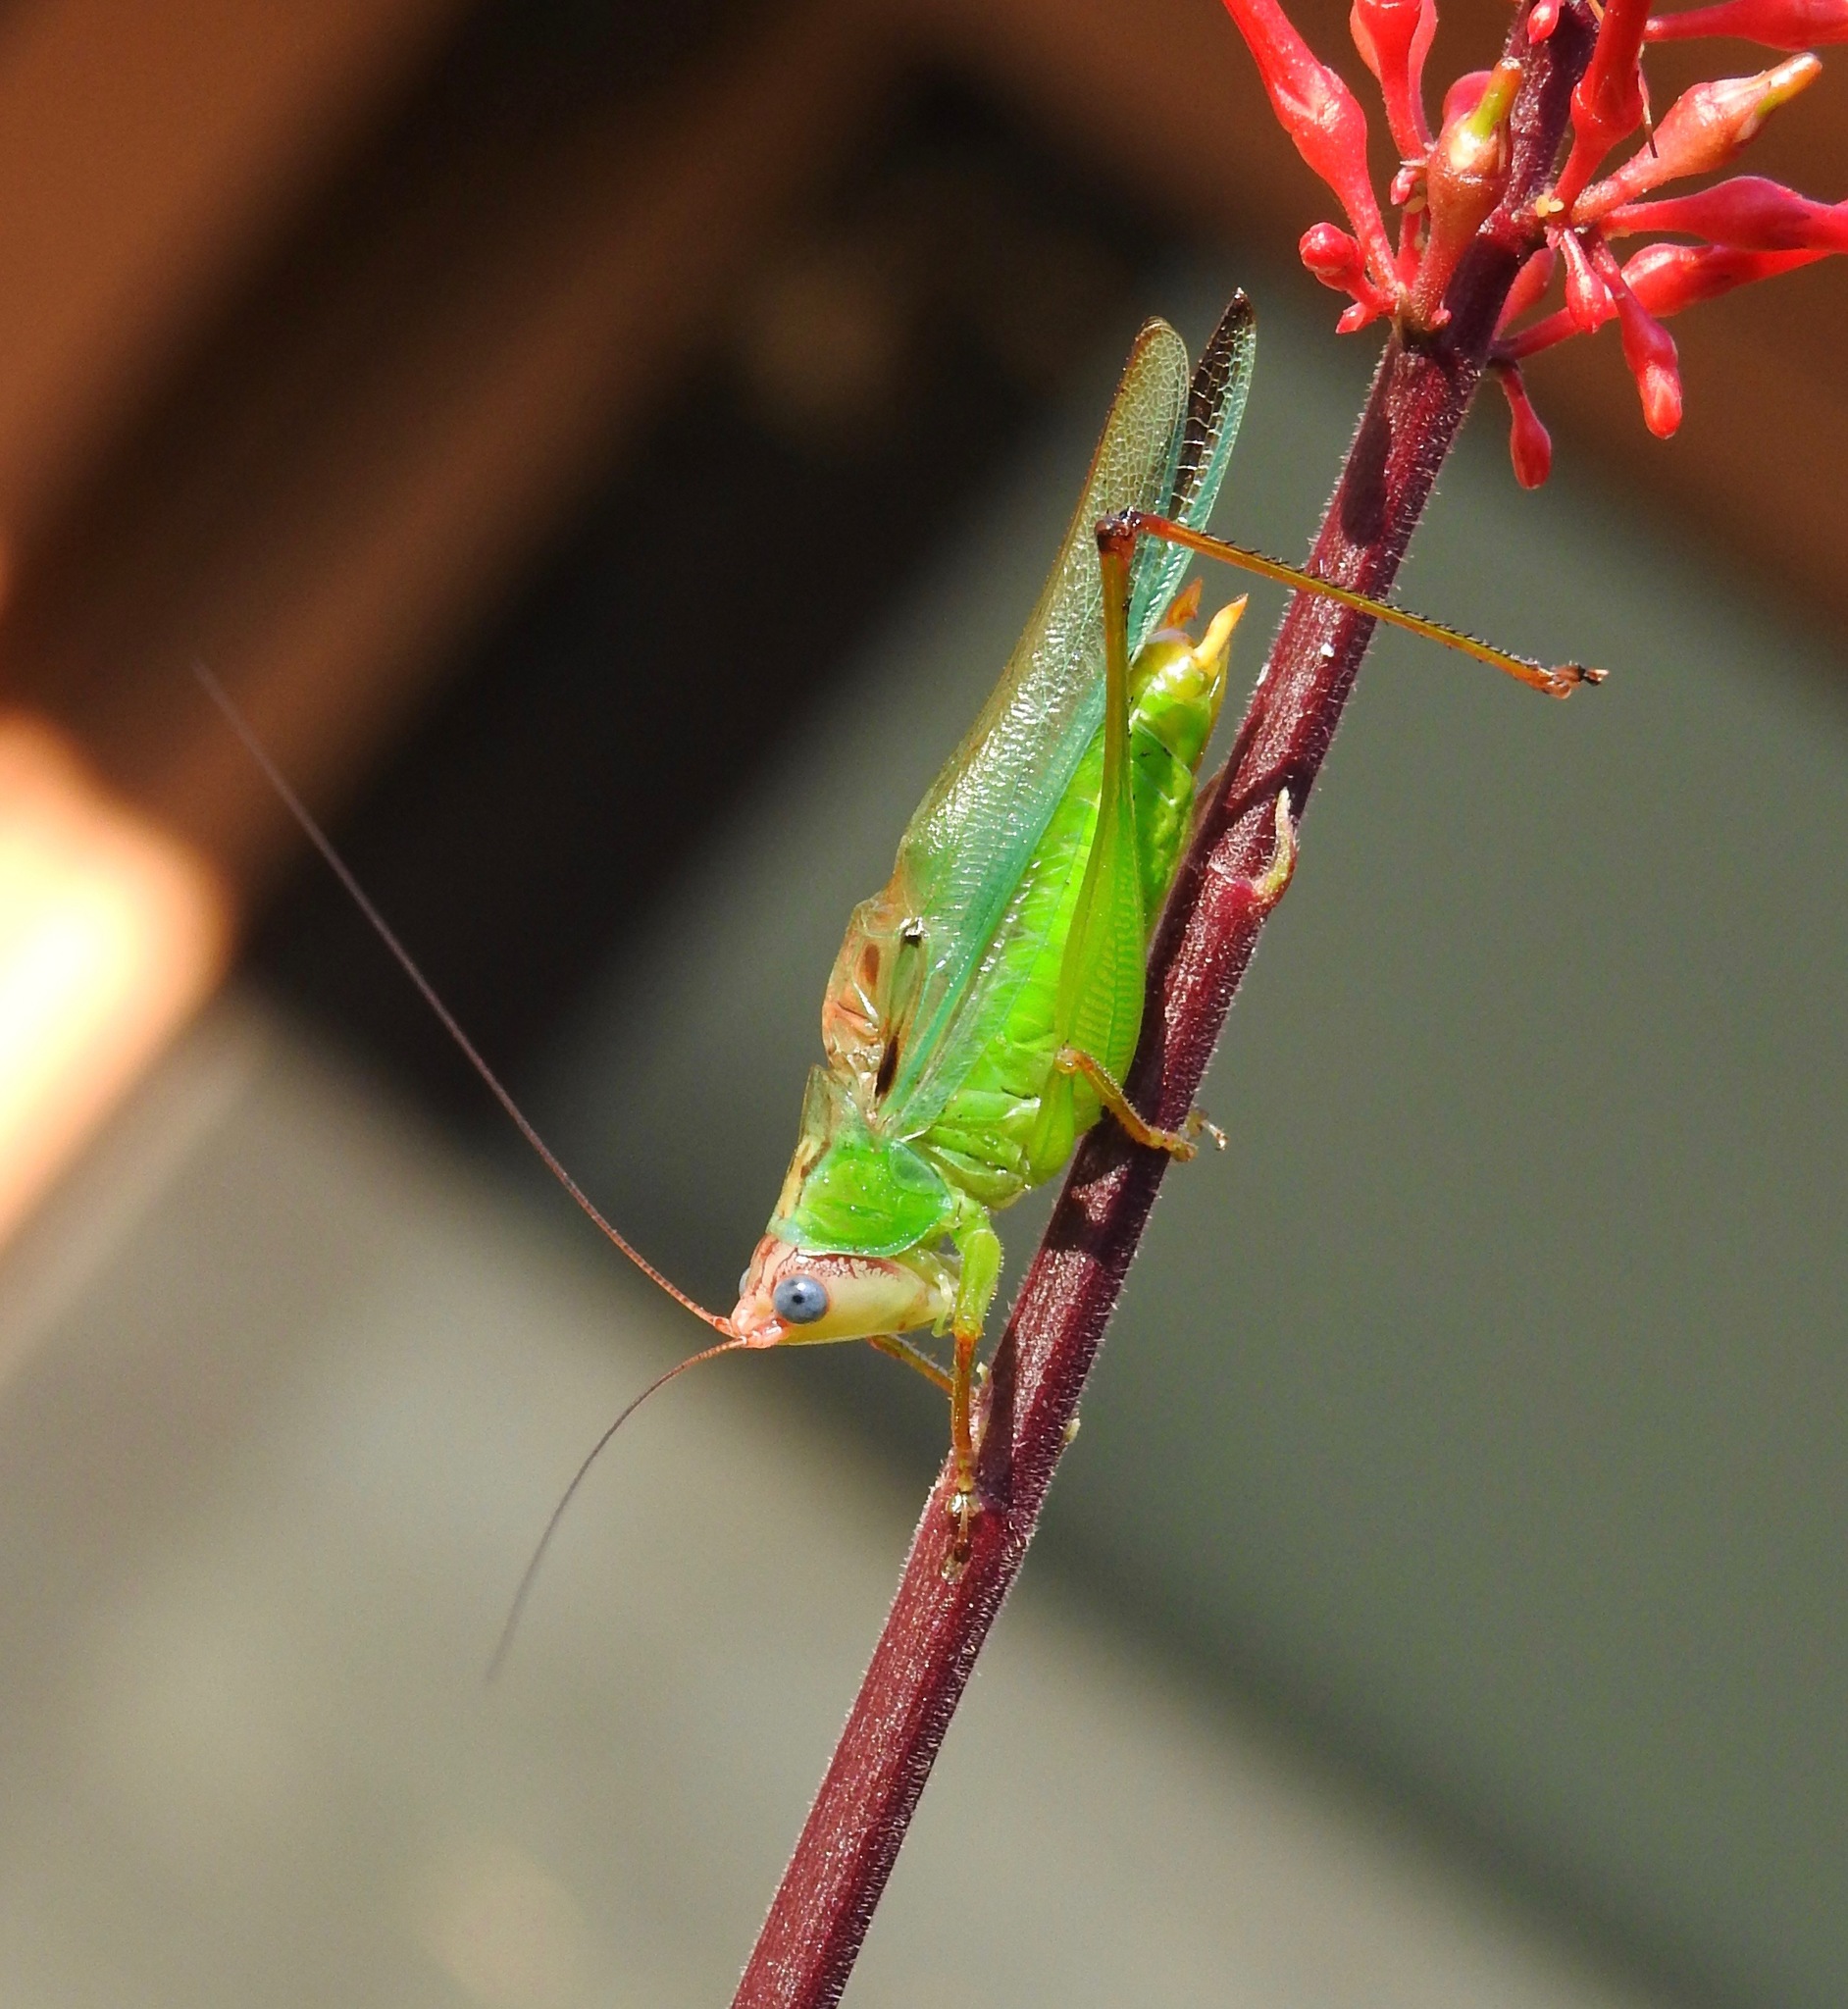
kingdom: Animalia
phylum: Arthropoda
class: Insecta
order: Orthoptera
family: Tettigoniidae
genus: Orchelimum
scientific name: Orchelimum pulchellum
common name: Handsome meadow katydid
